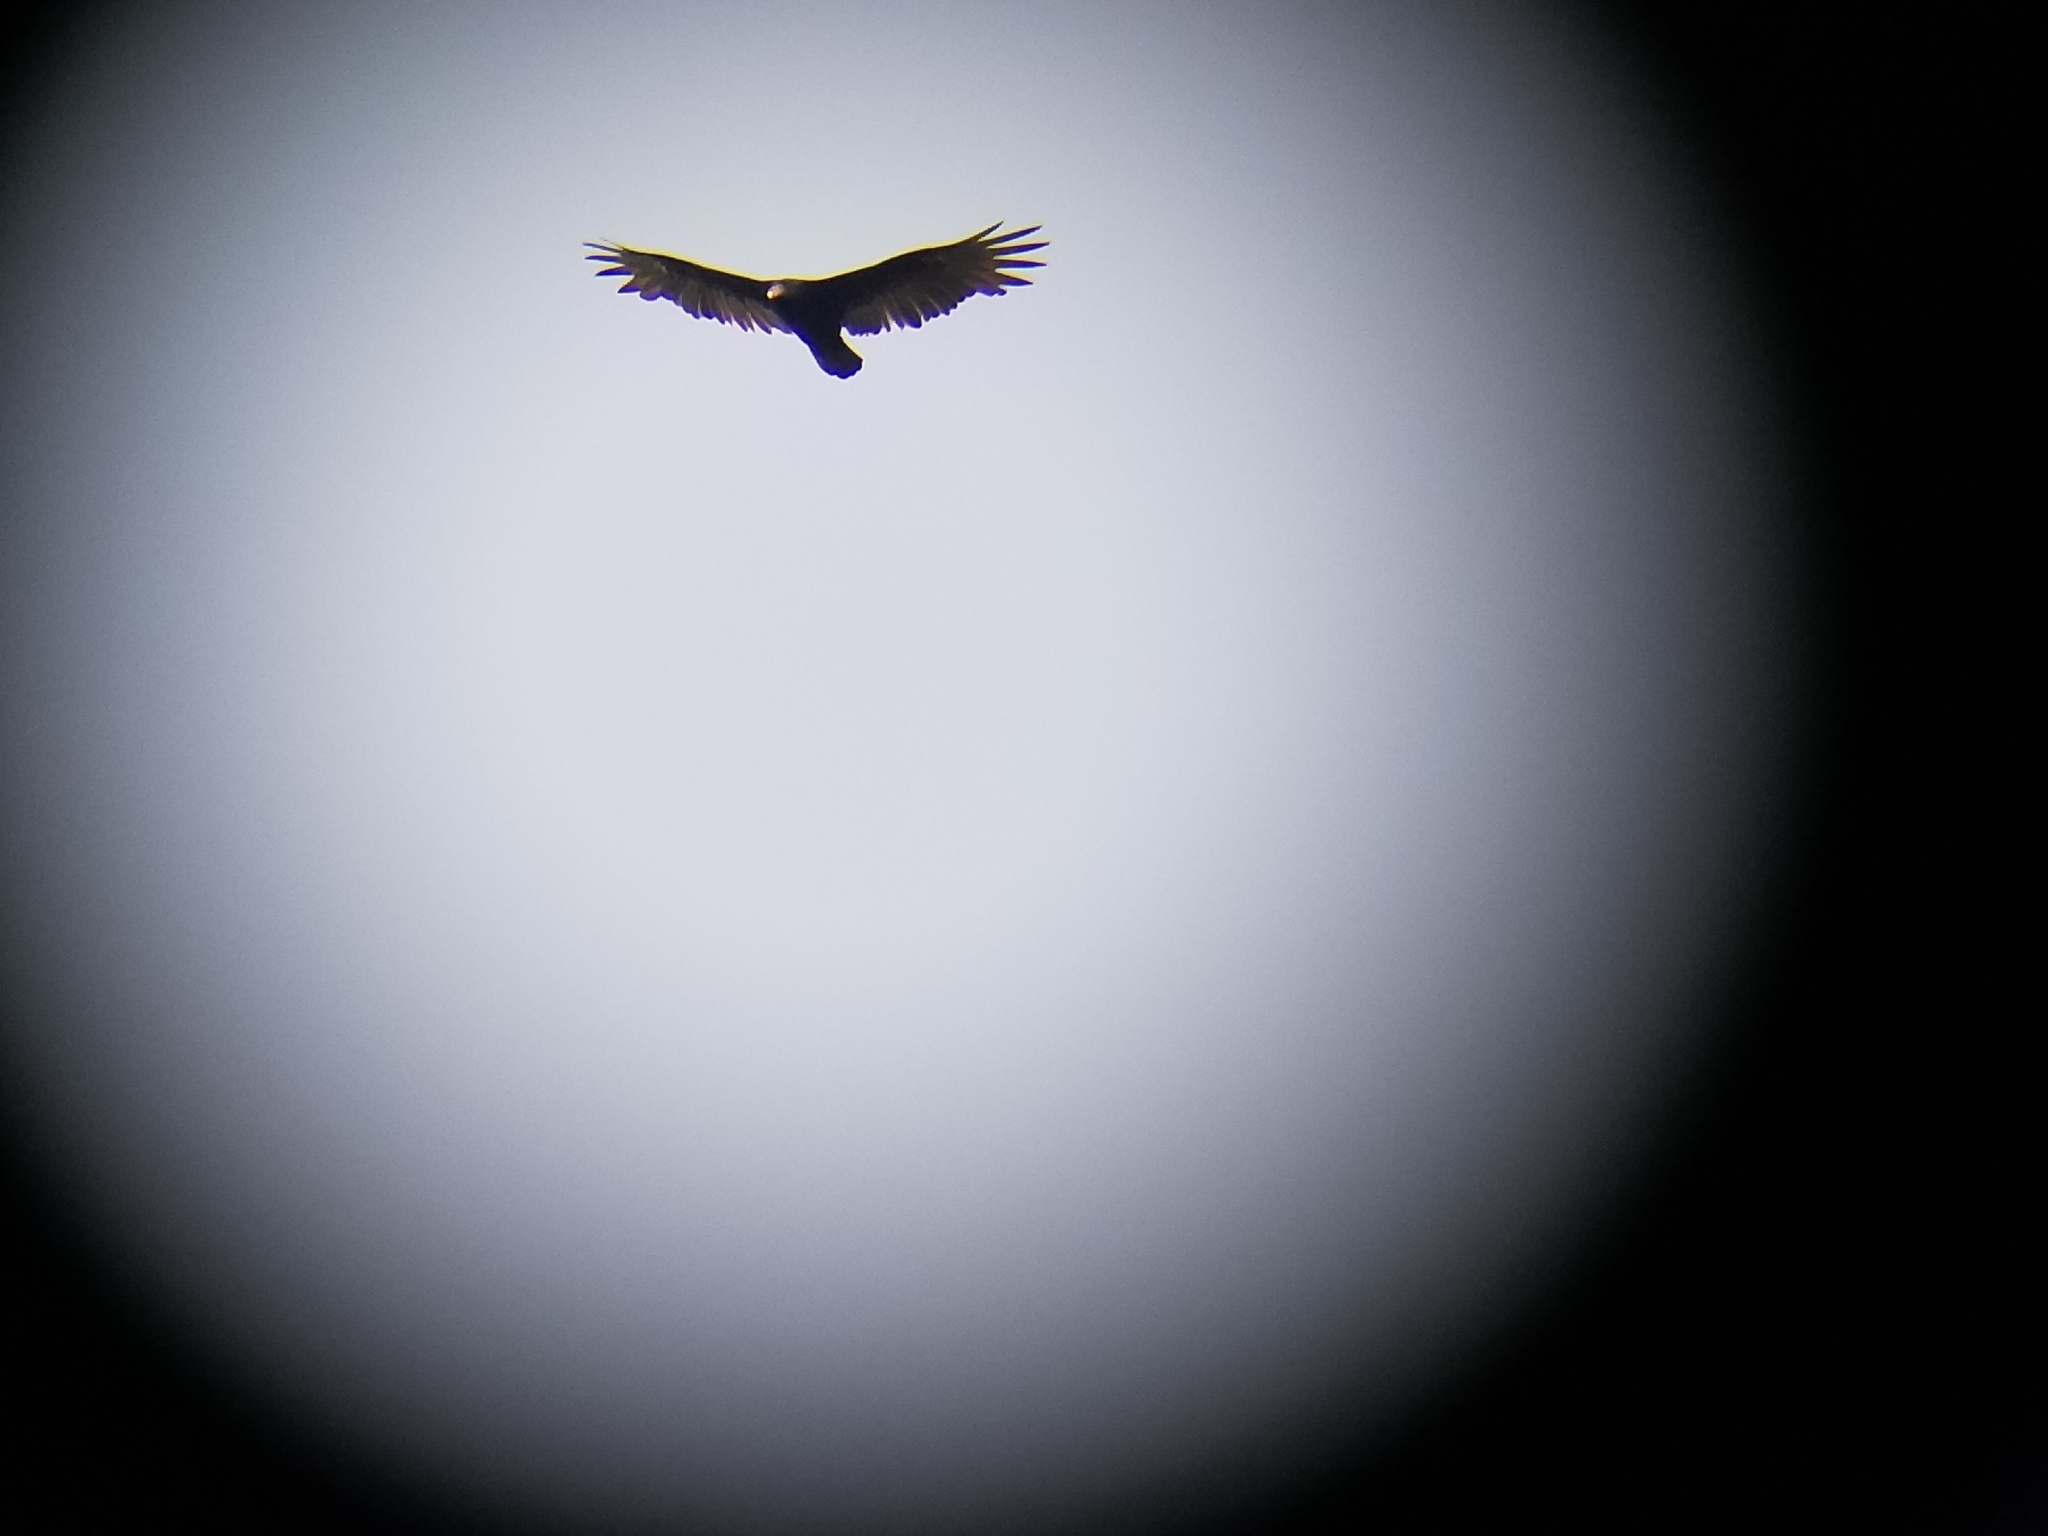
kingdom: Animalia
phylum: Chordata
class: Aves
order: Accipitriformes
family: Cathartidae
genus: Cathartes
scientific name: Cathartes aura
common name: Turkey vulture
